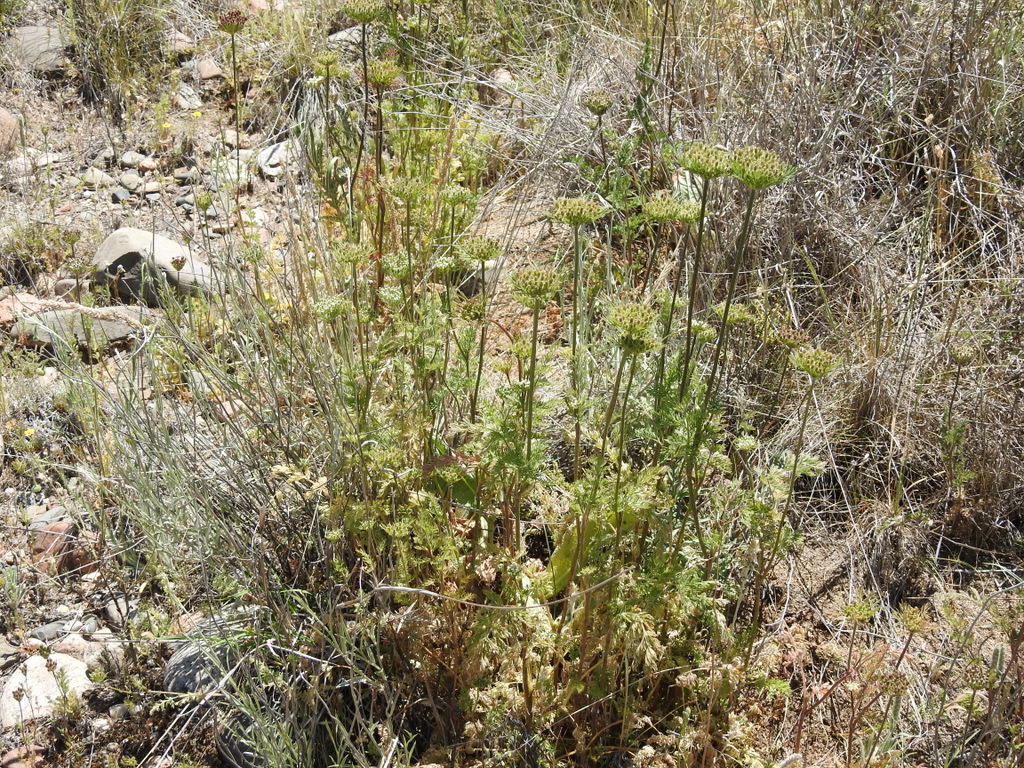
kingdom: Plantae
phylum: Tracheophyta
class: Magnoliopsida
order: Apiales
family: Apiaceae
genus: Daucus
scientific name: Daucus pusillus
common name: Southwest wild carrot
